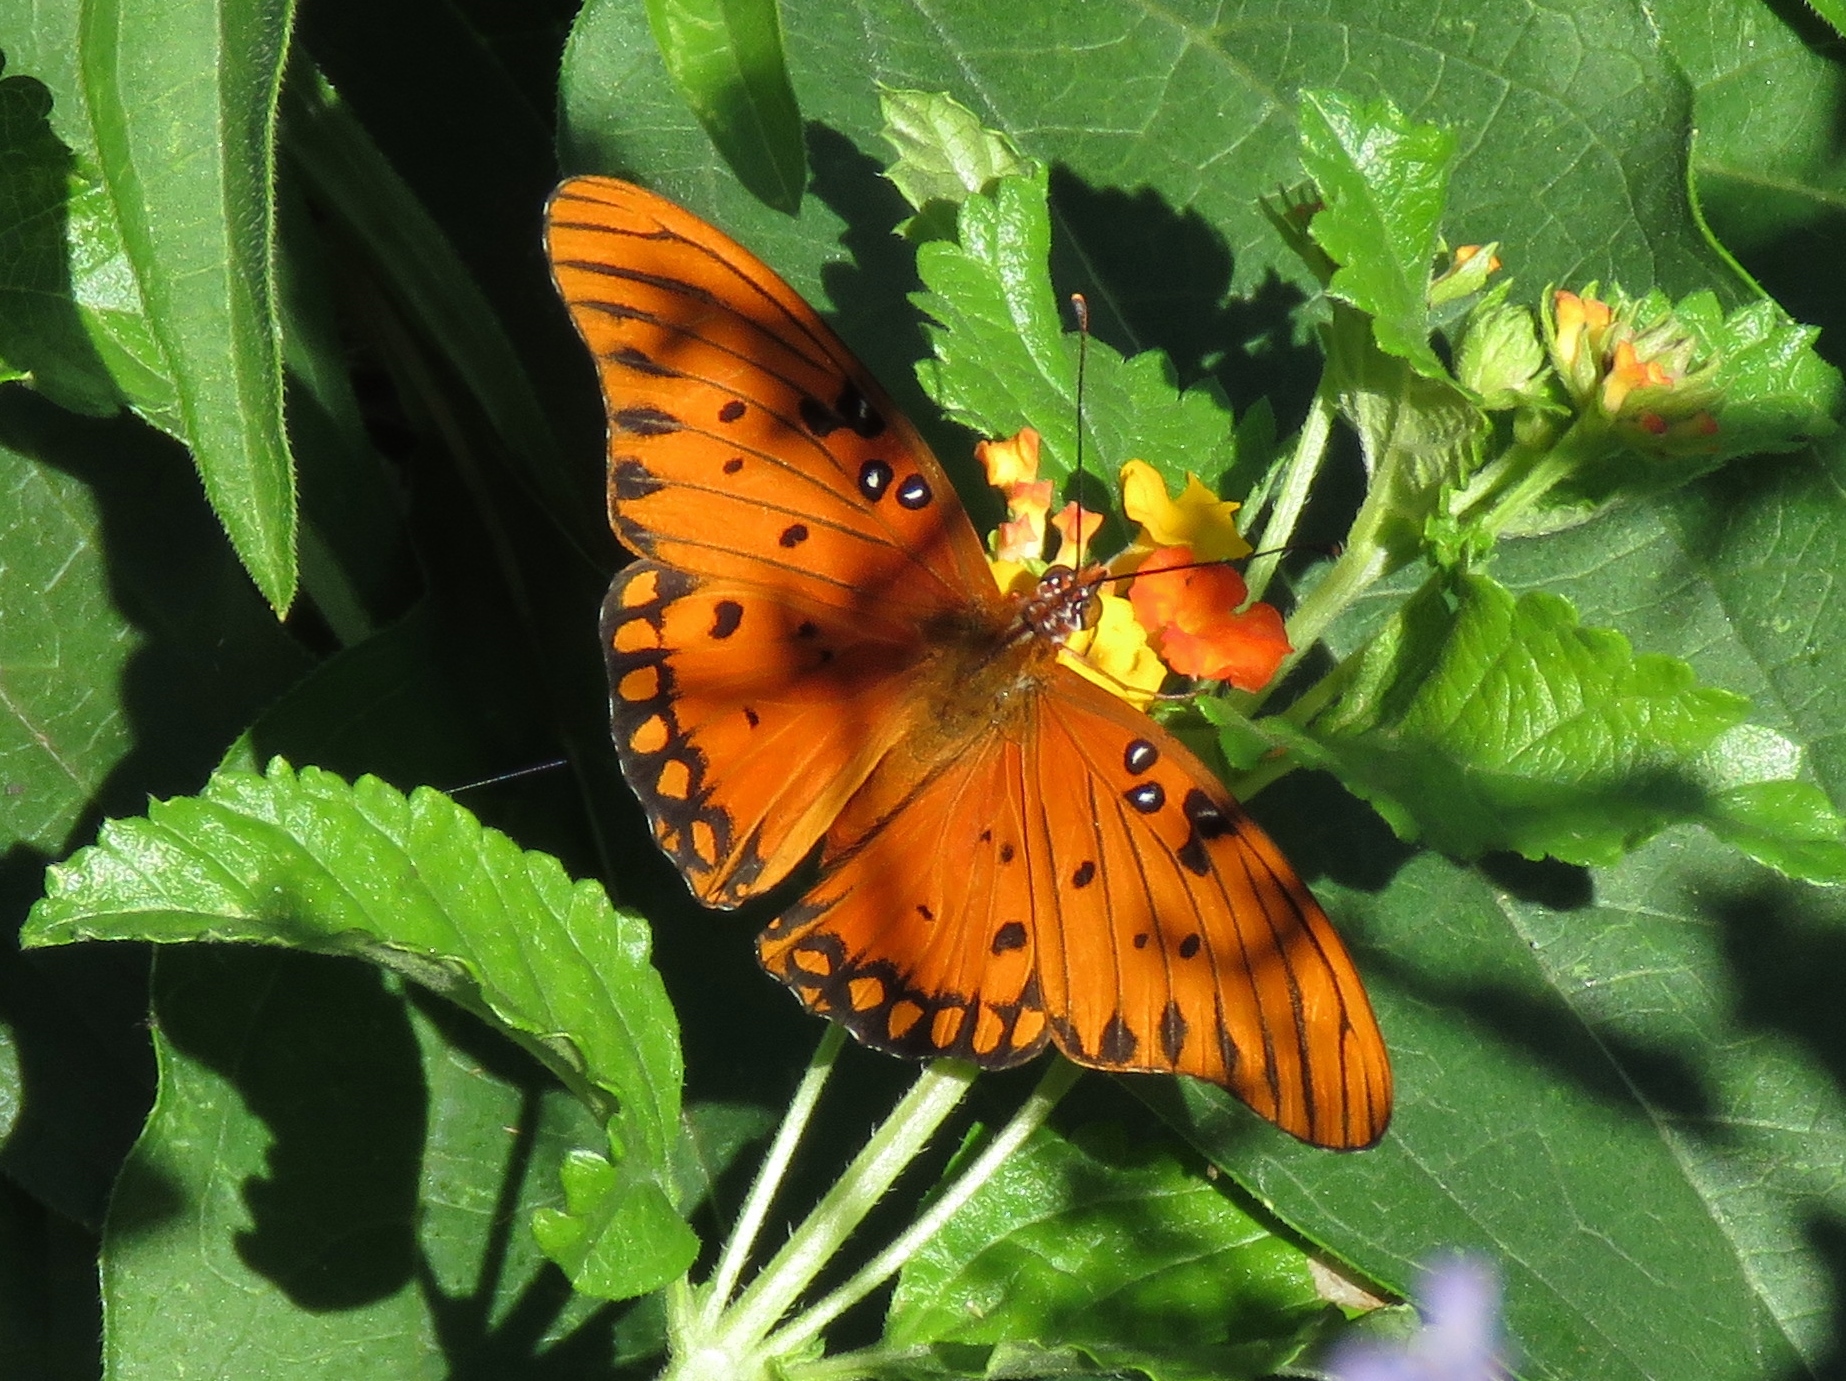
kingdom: Animalia
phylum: Arthropoda
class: Insecta
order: Lepidoptera
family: Nymphalidae
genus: Dione
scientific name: Dione vanillae
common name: Gulf fritillary
